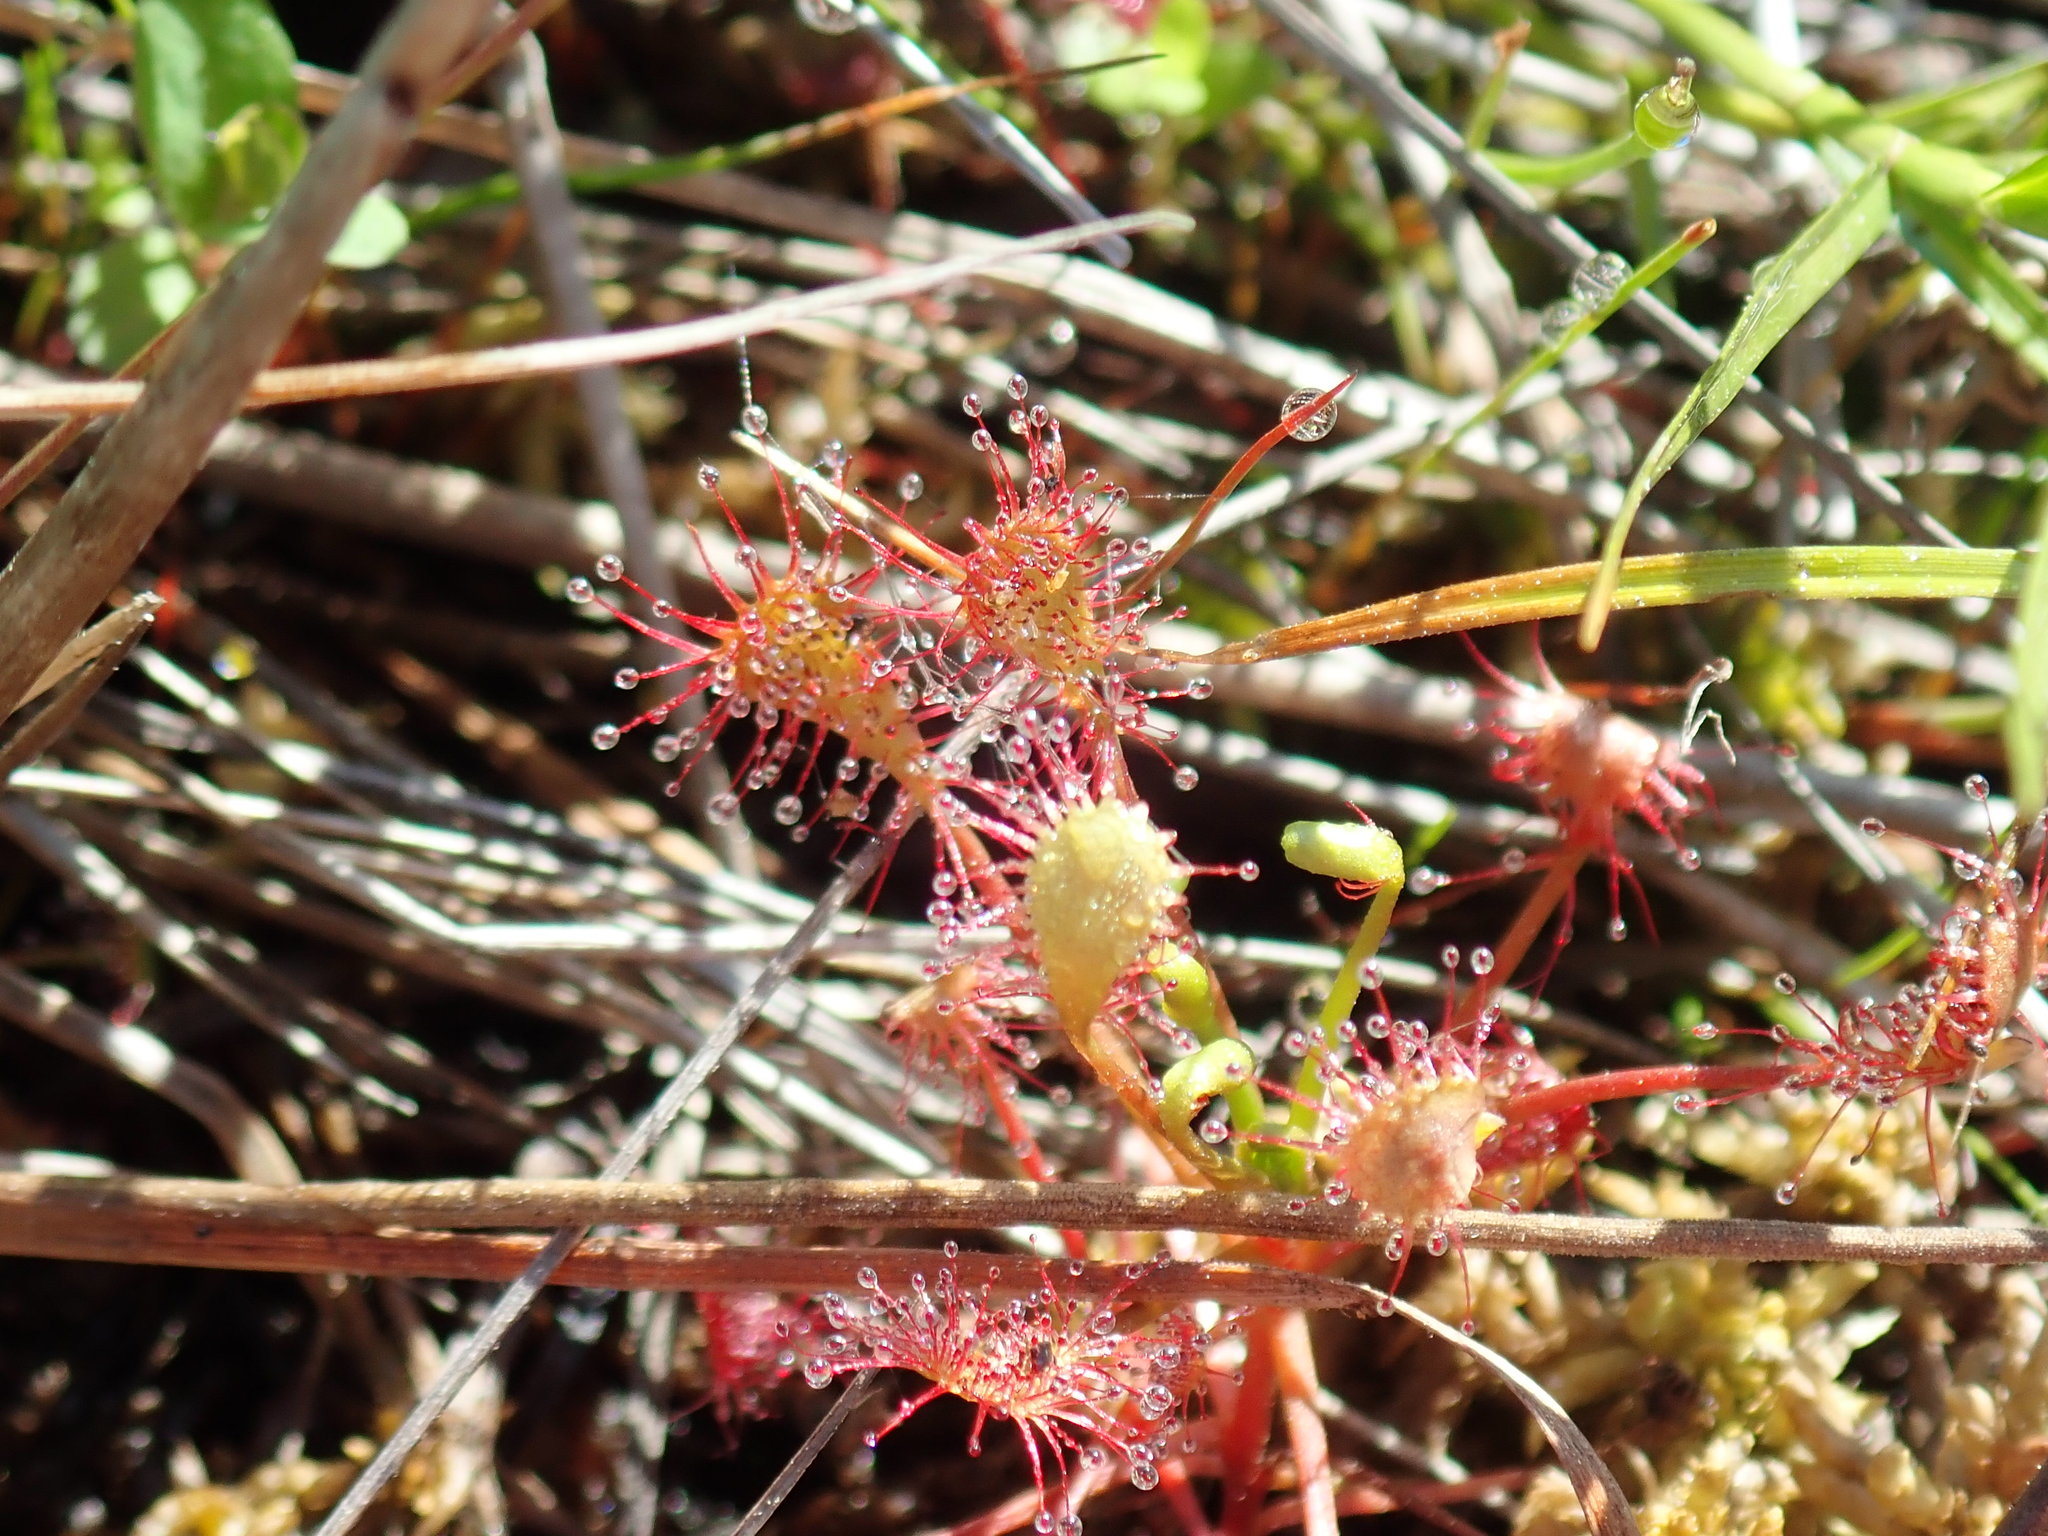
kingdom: Plantae
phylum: Tracheophyta
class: Magnoliopsida
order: Caryophyllales
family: Droseraceae
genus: Drosera
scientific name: Drosera intermedia
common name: Oblong-leaved sundew
